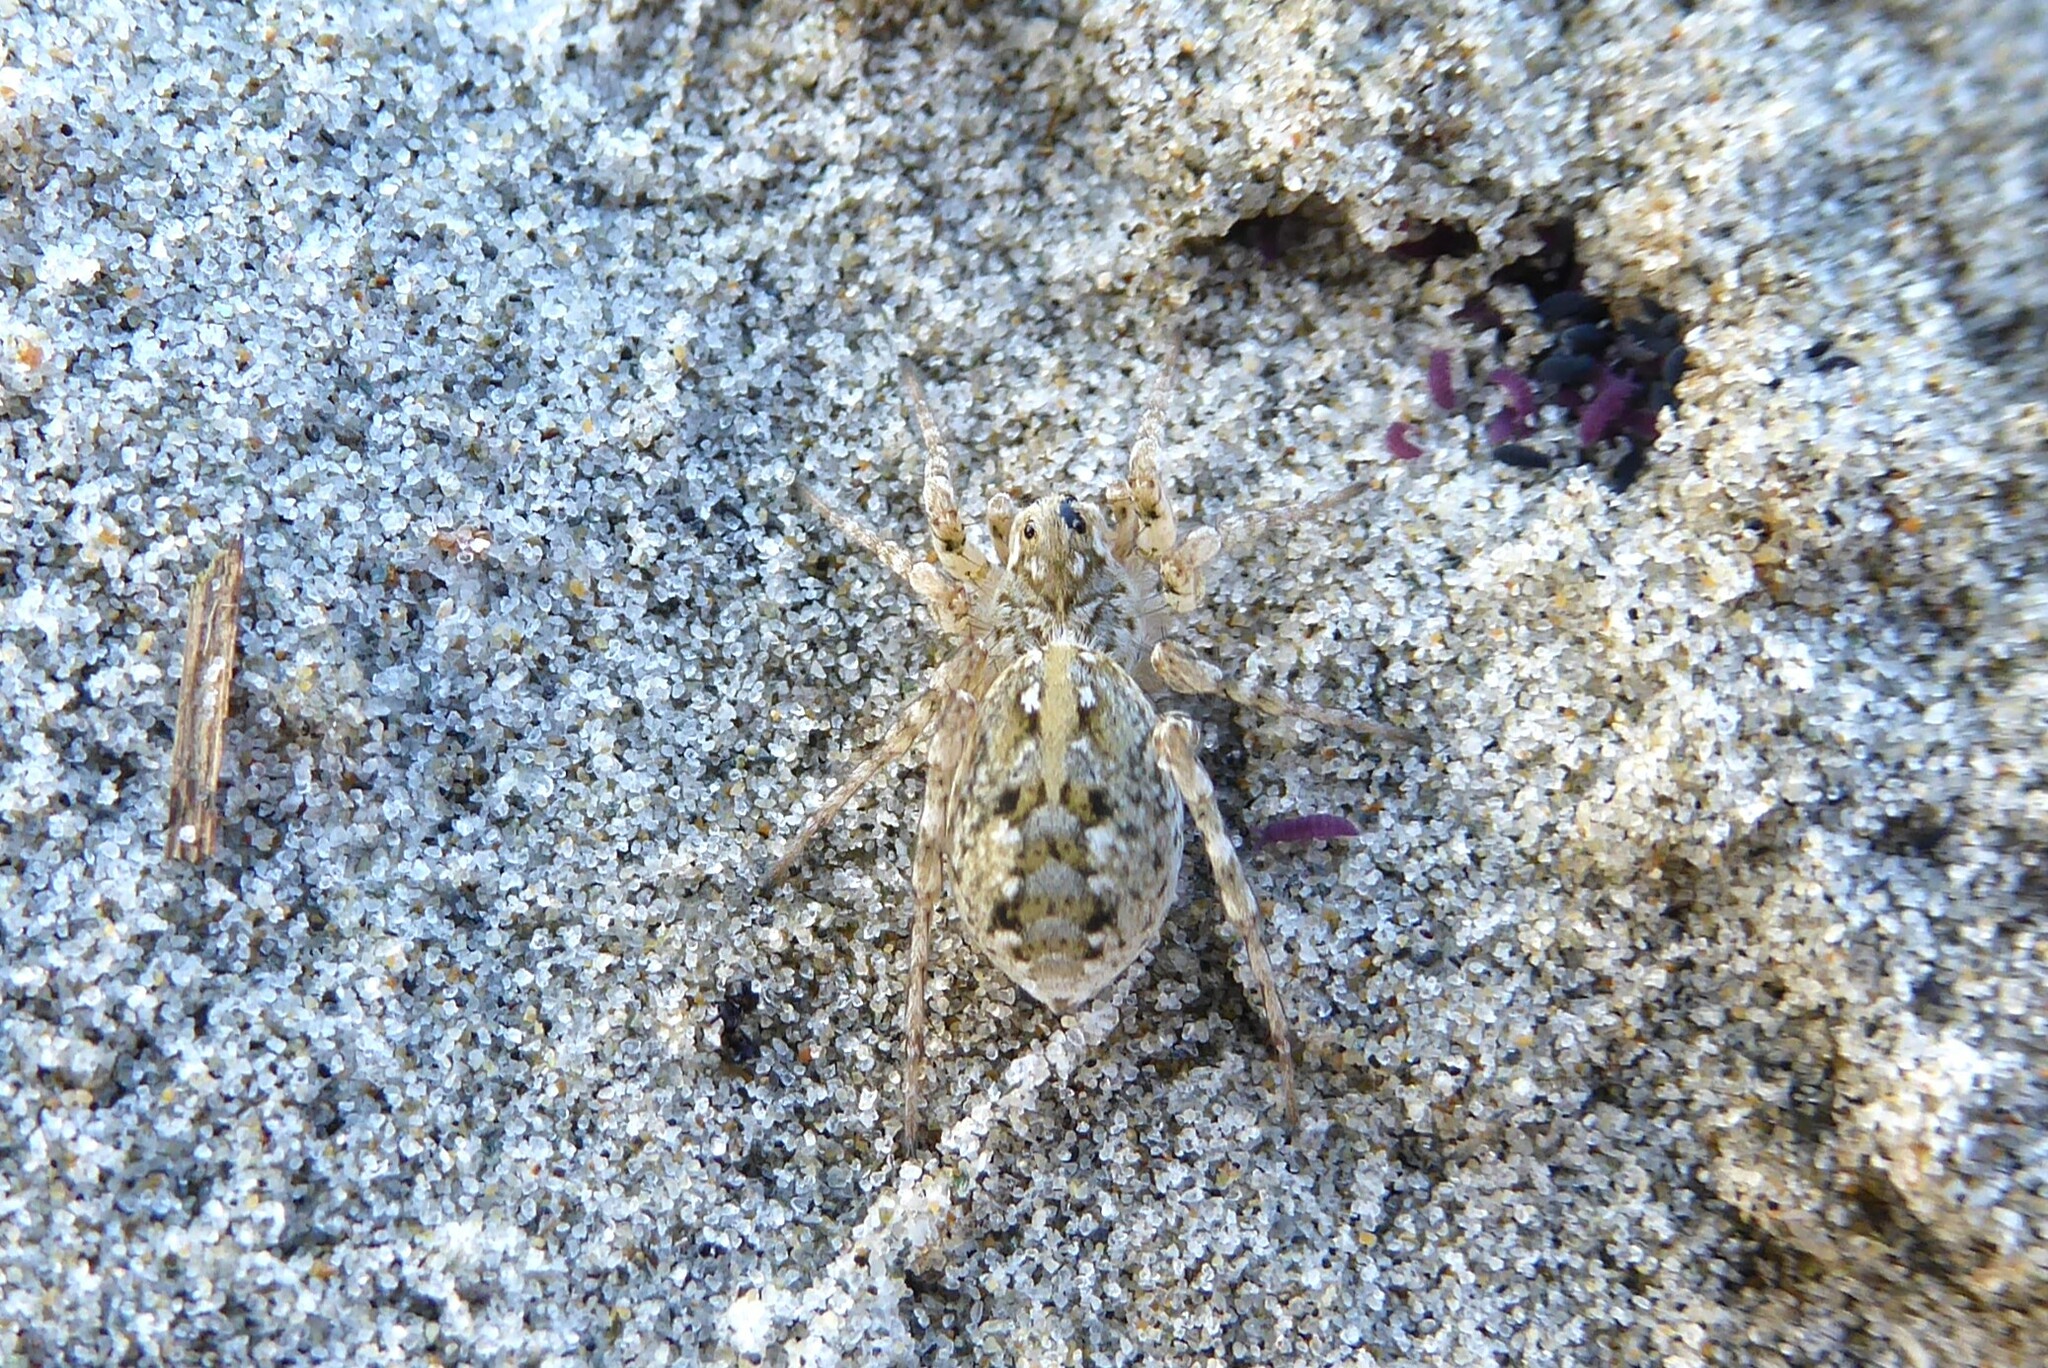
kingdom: Animalia
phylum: Arthropoda
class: Arachnida
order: Araneae
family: Lycosidae
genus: Anoteropsis
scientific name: Anoteropsis forsteri
